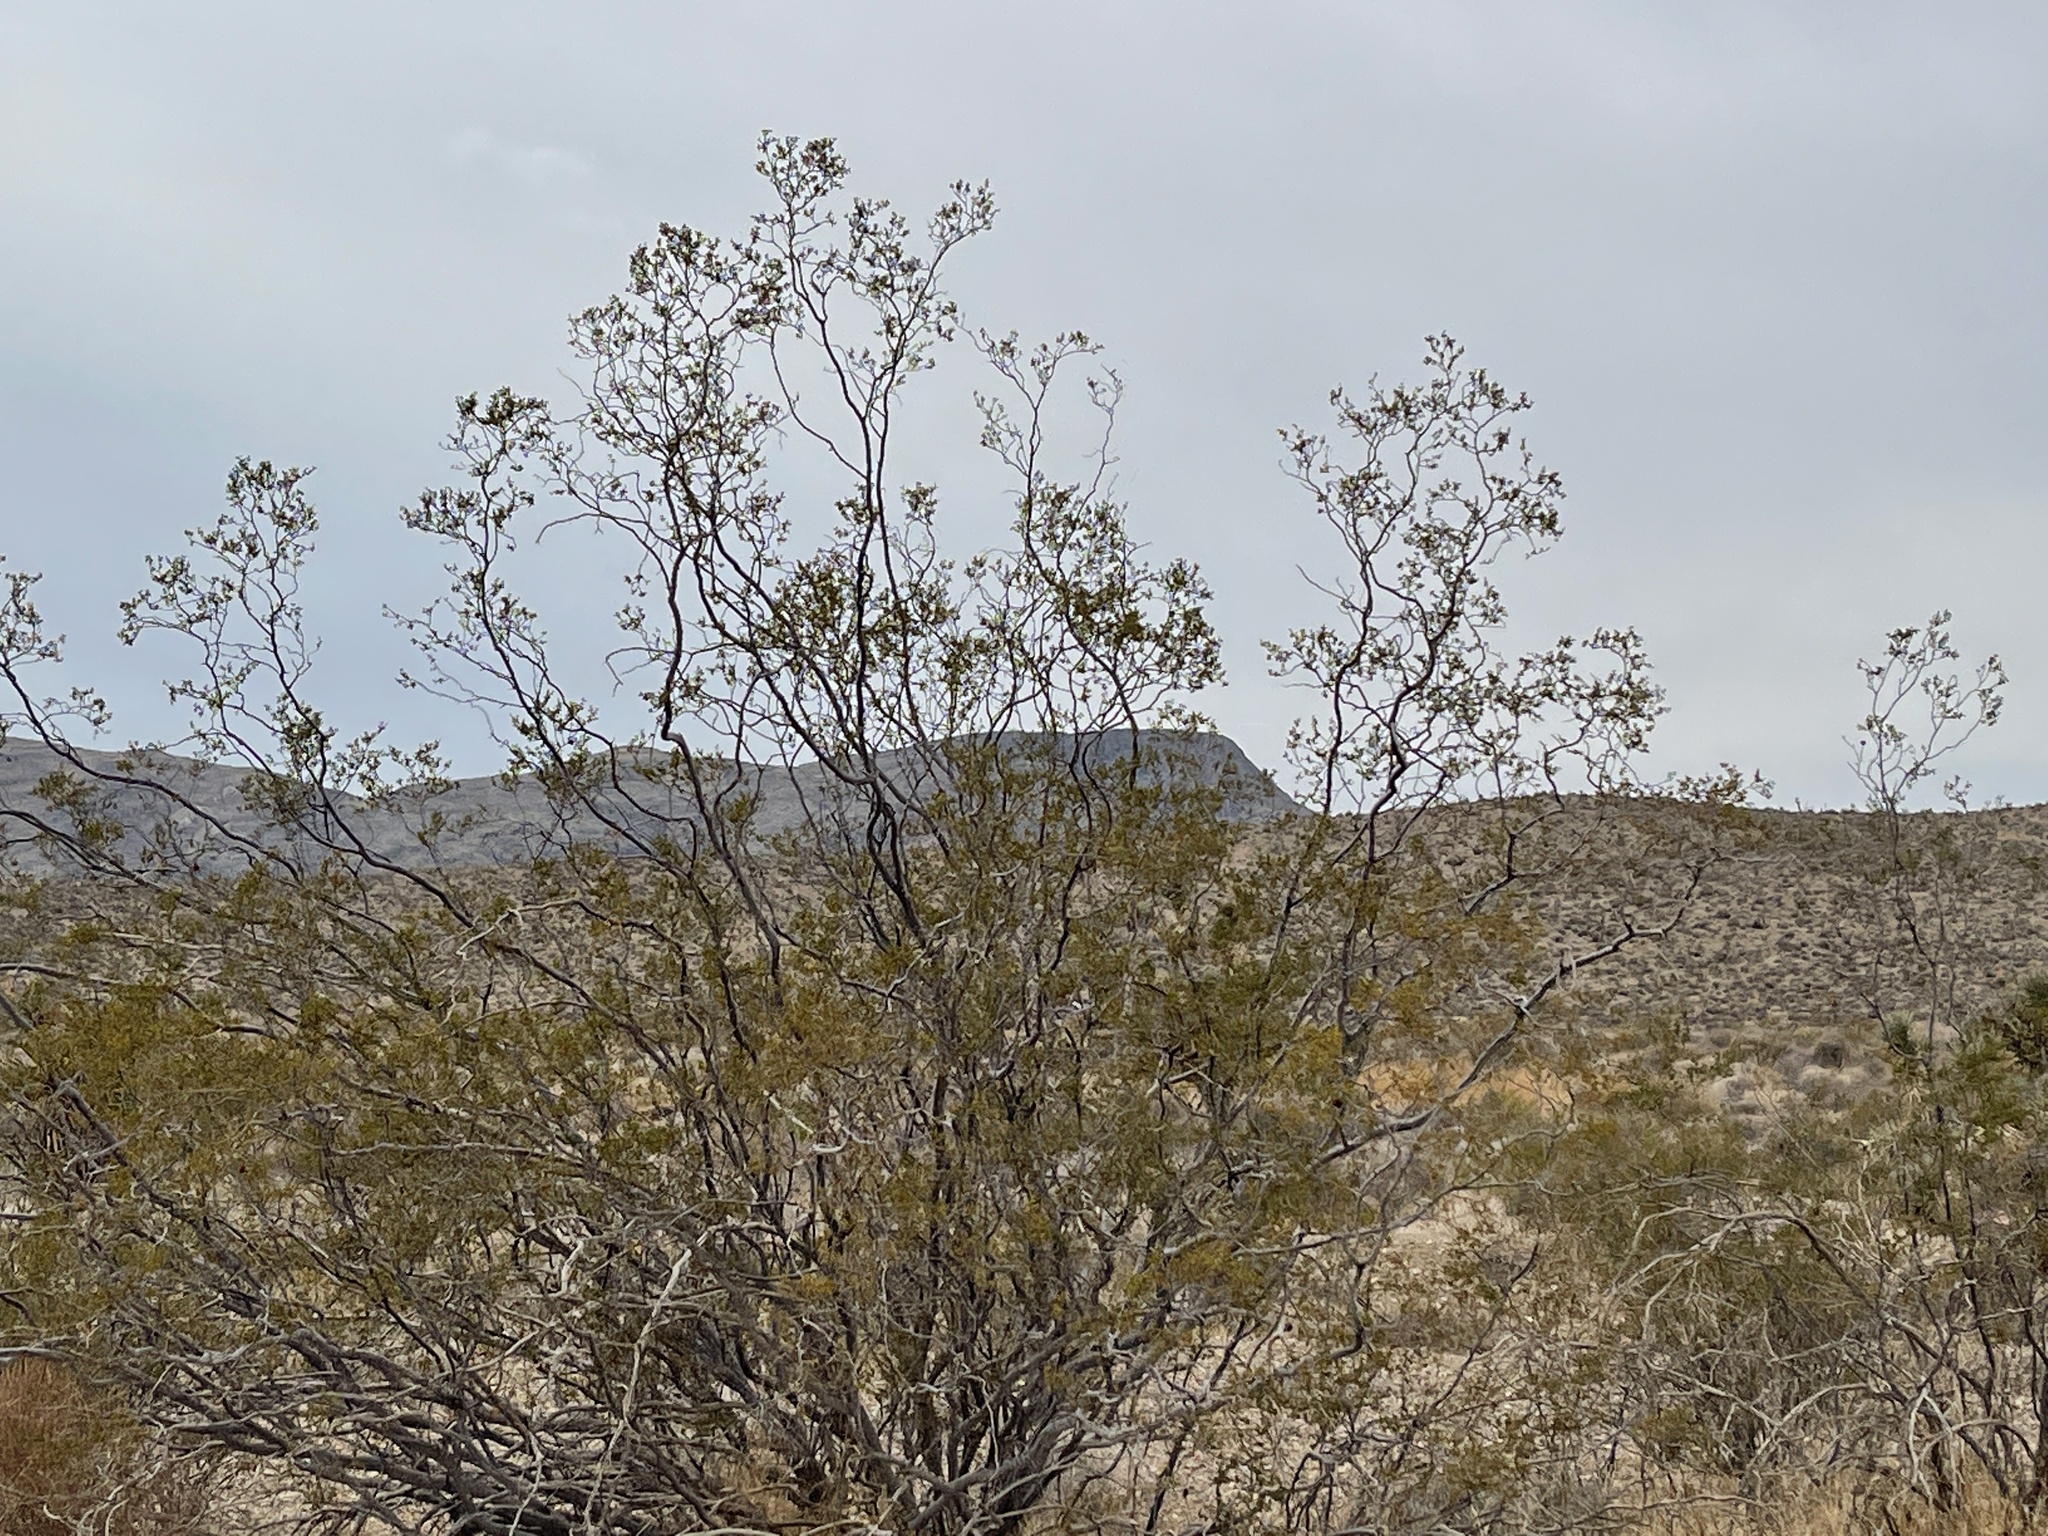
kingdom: Plantae
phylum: Tracheophyta
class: Magnoliopsida
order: Zygophyllales
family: Zygophyllaceae
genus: Larrea
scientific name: Larrea tridentata
